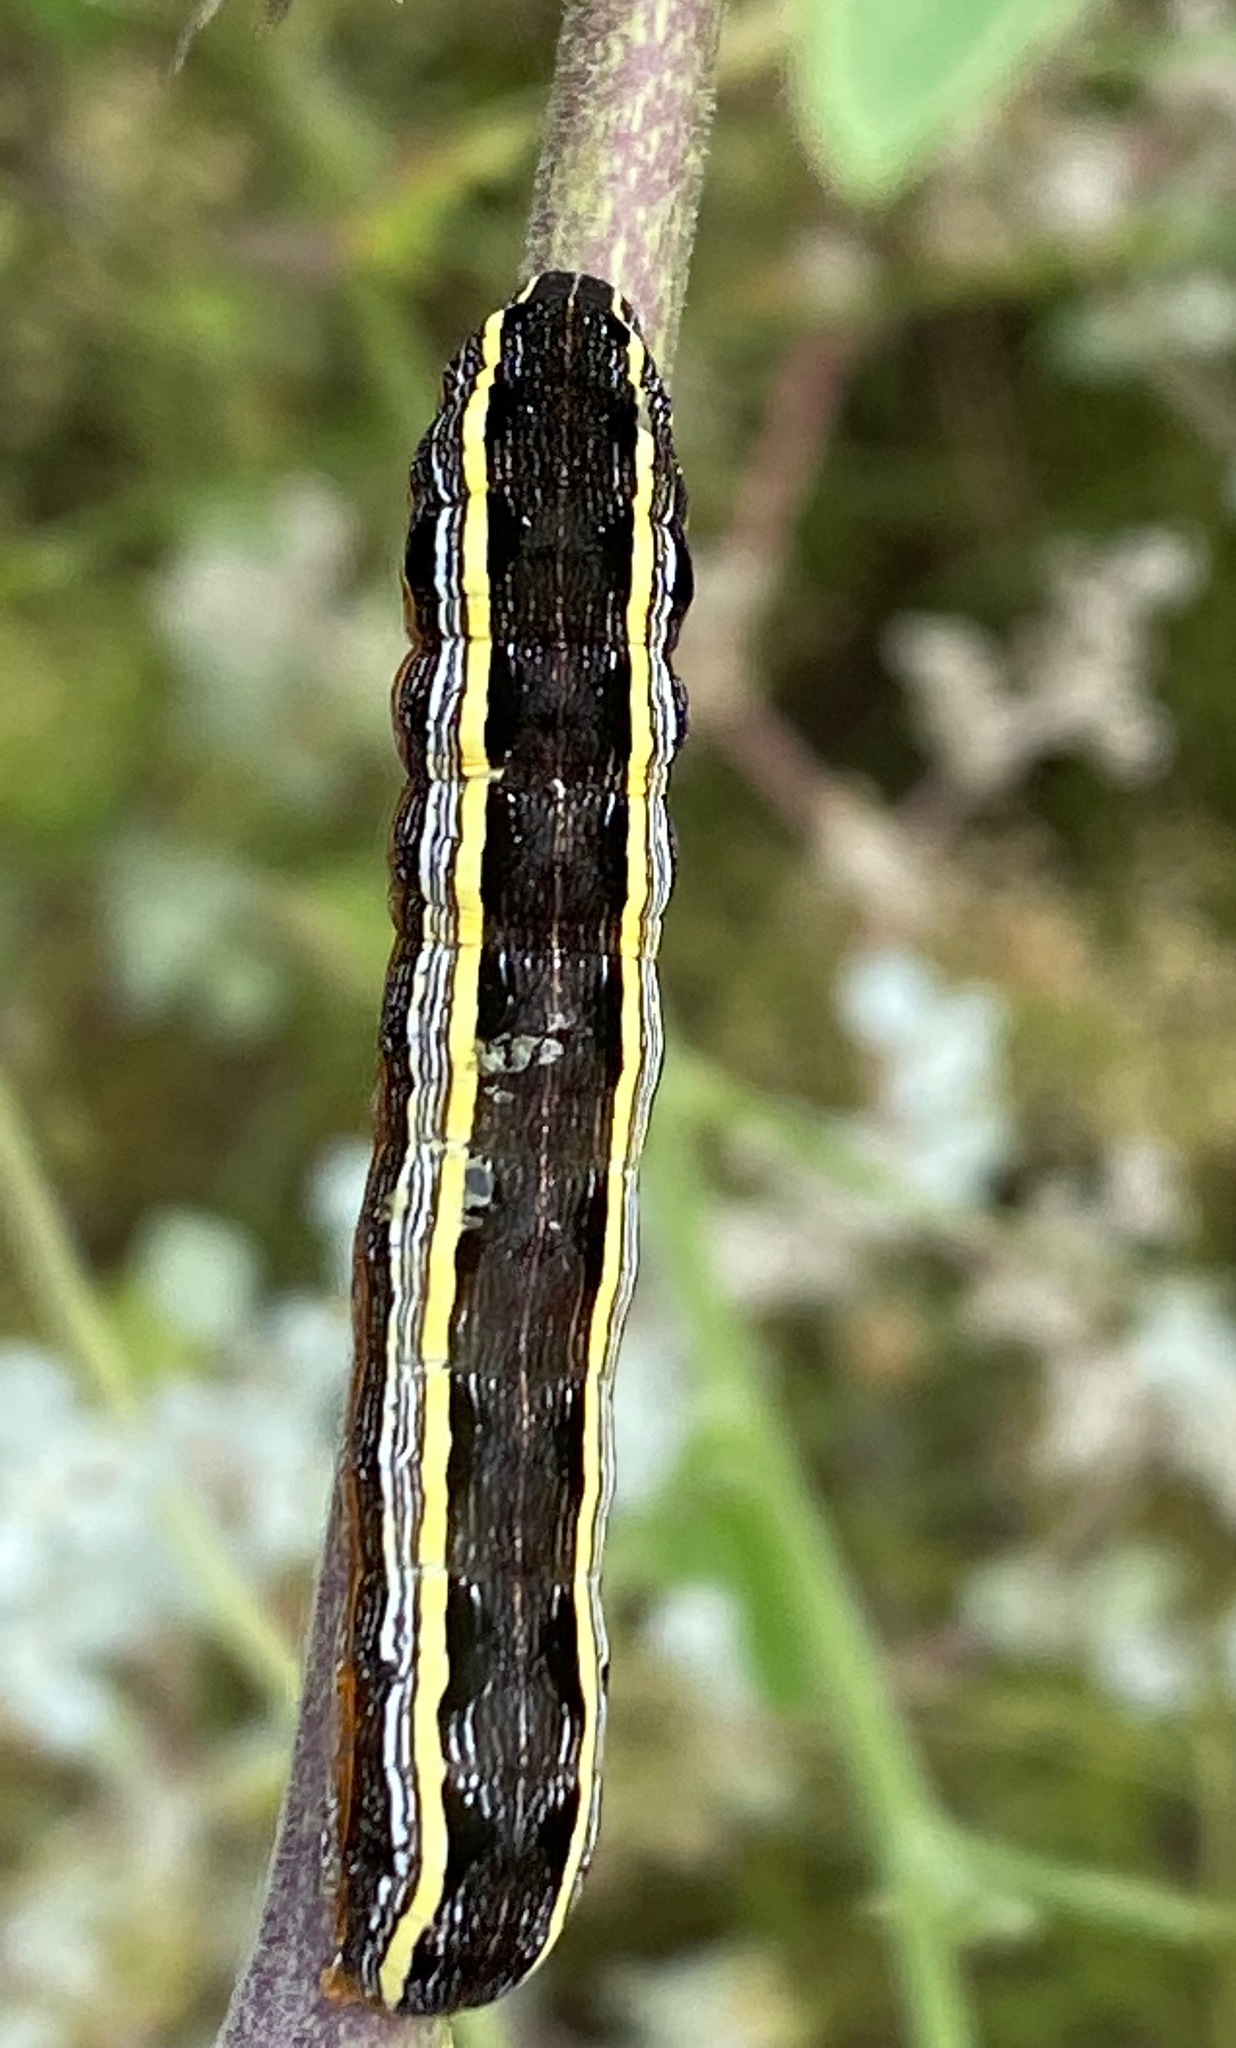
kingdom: Animalia
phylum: Arthropoda
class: Insecta
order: Lepidoptera
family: Noctuidae
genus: Spodoptera
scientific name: Spodoptera ornithogalli
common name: Yellow-striped armyworm
